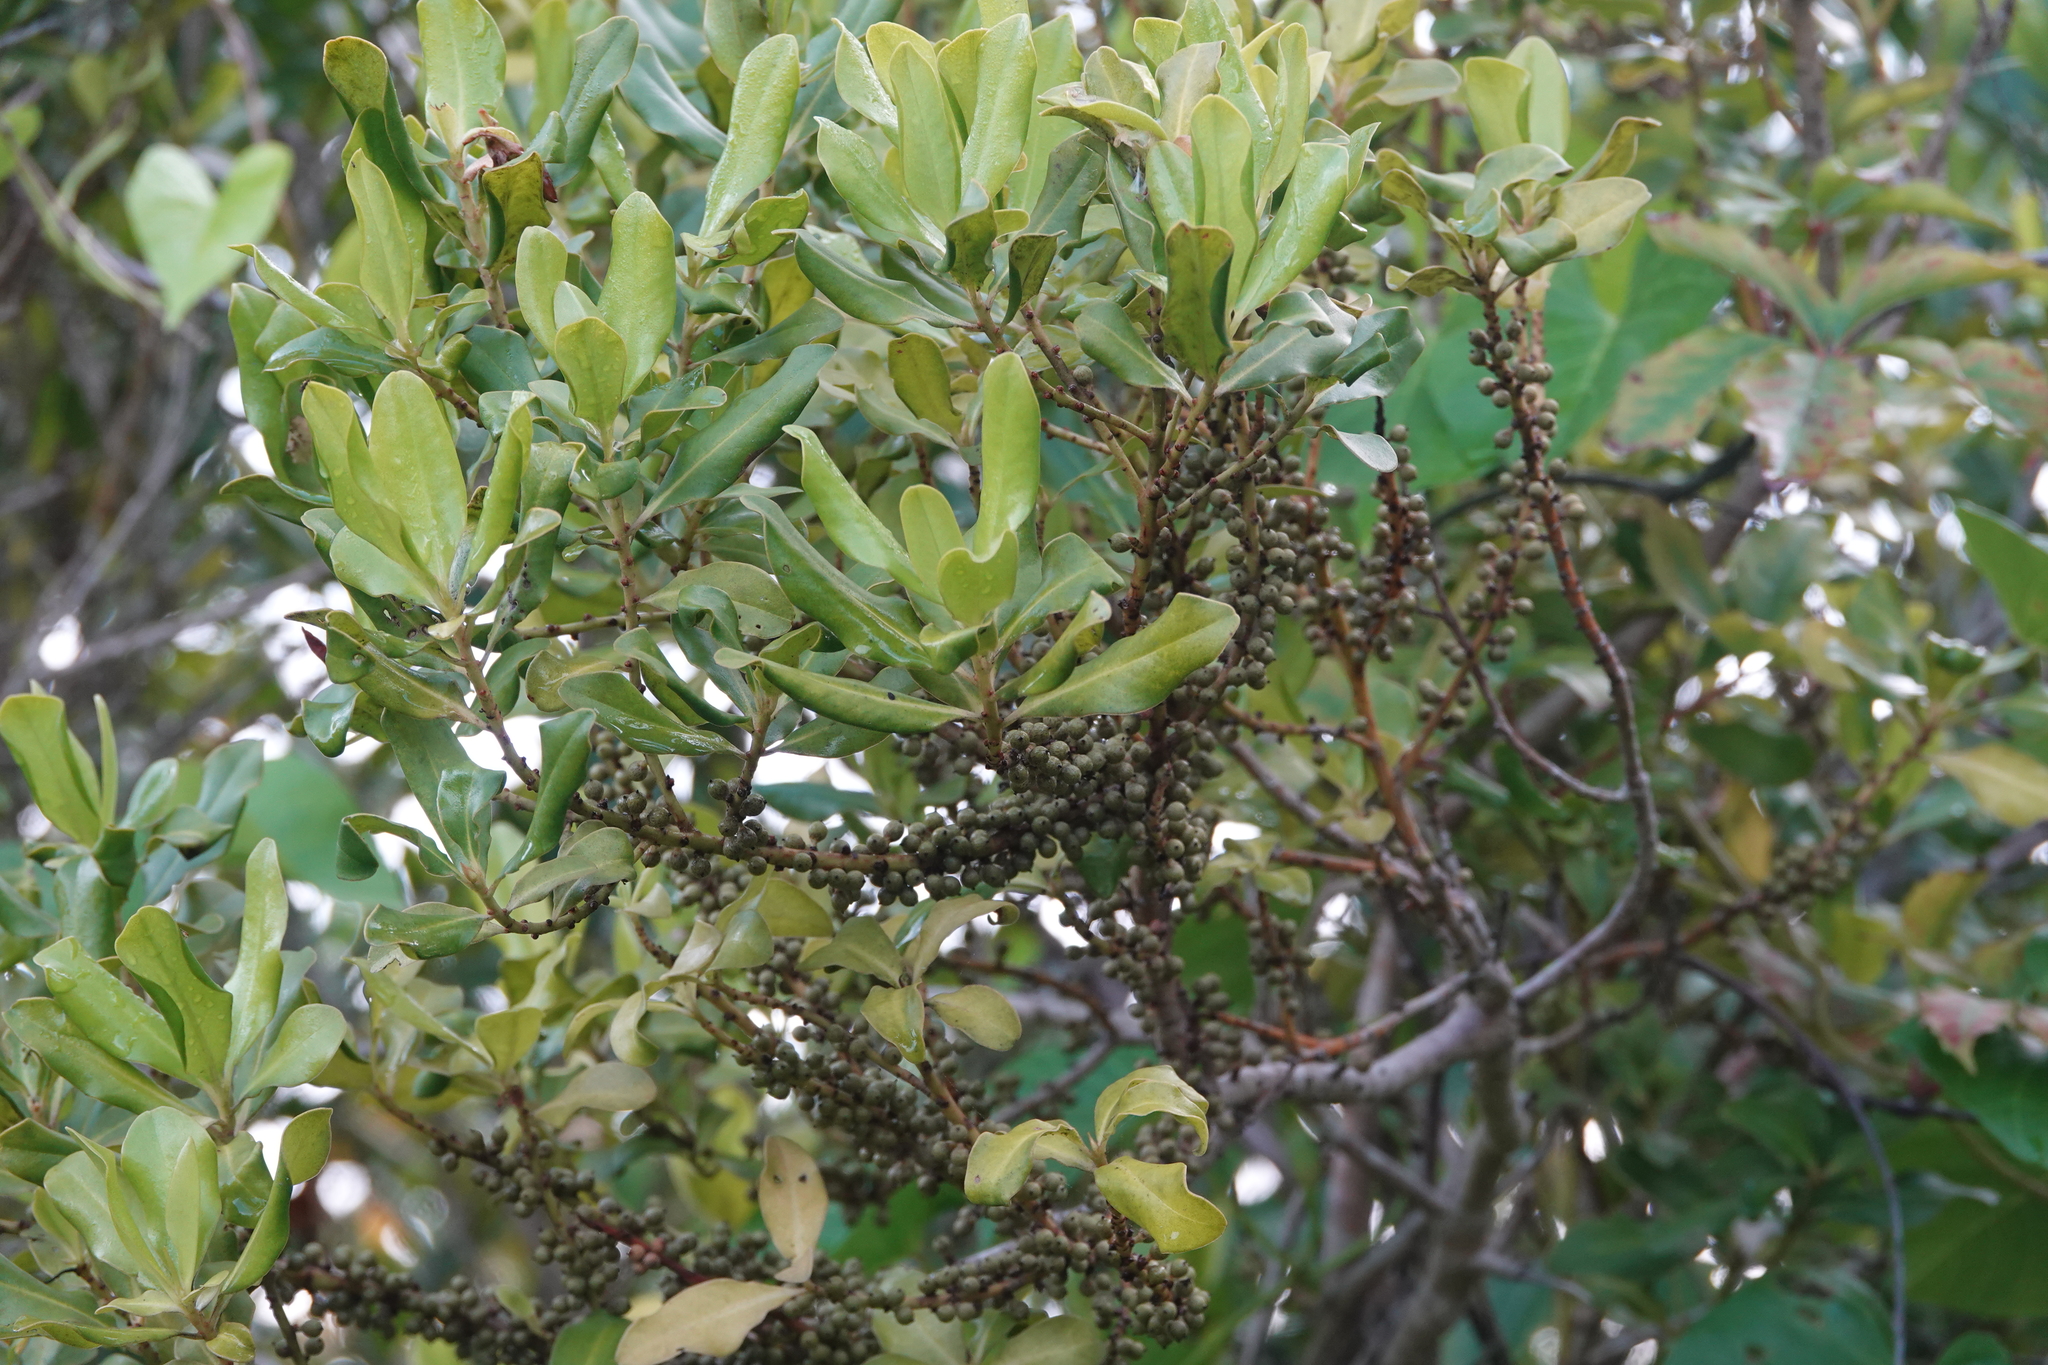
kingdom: Plantae
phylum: Tracheophyta
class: Magnoliopsida
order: Ericales
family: Primulaceae
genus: Myrsine
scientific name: Myrsine floridana
